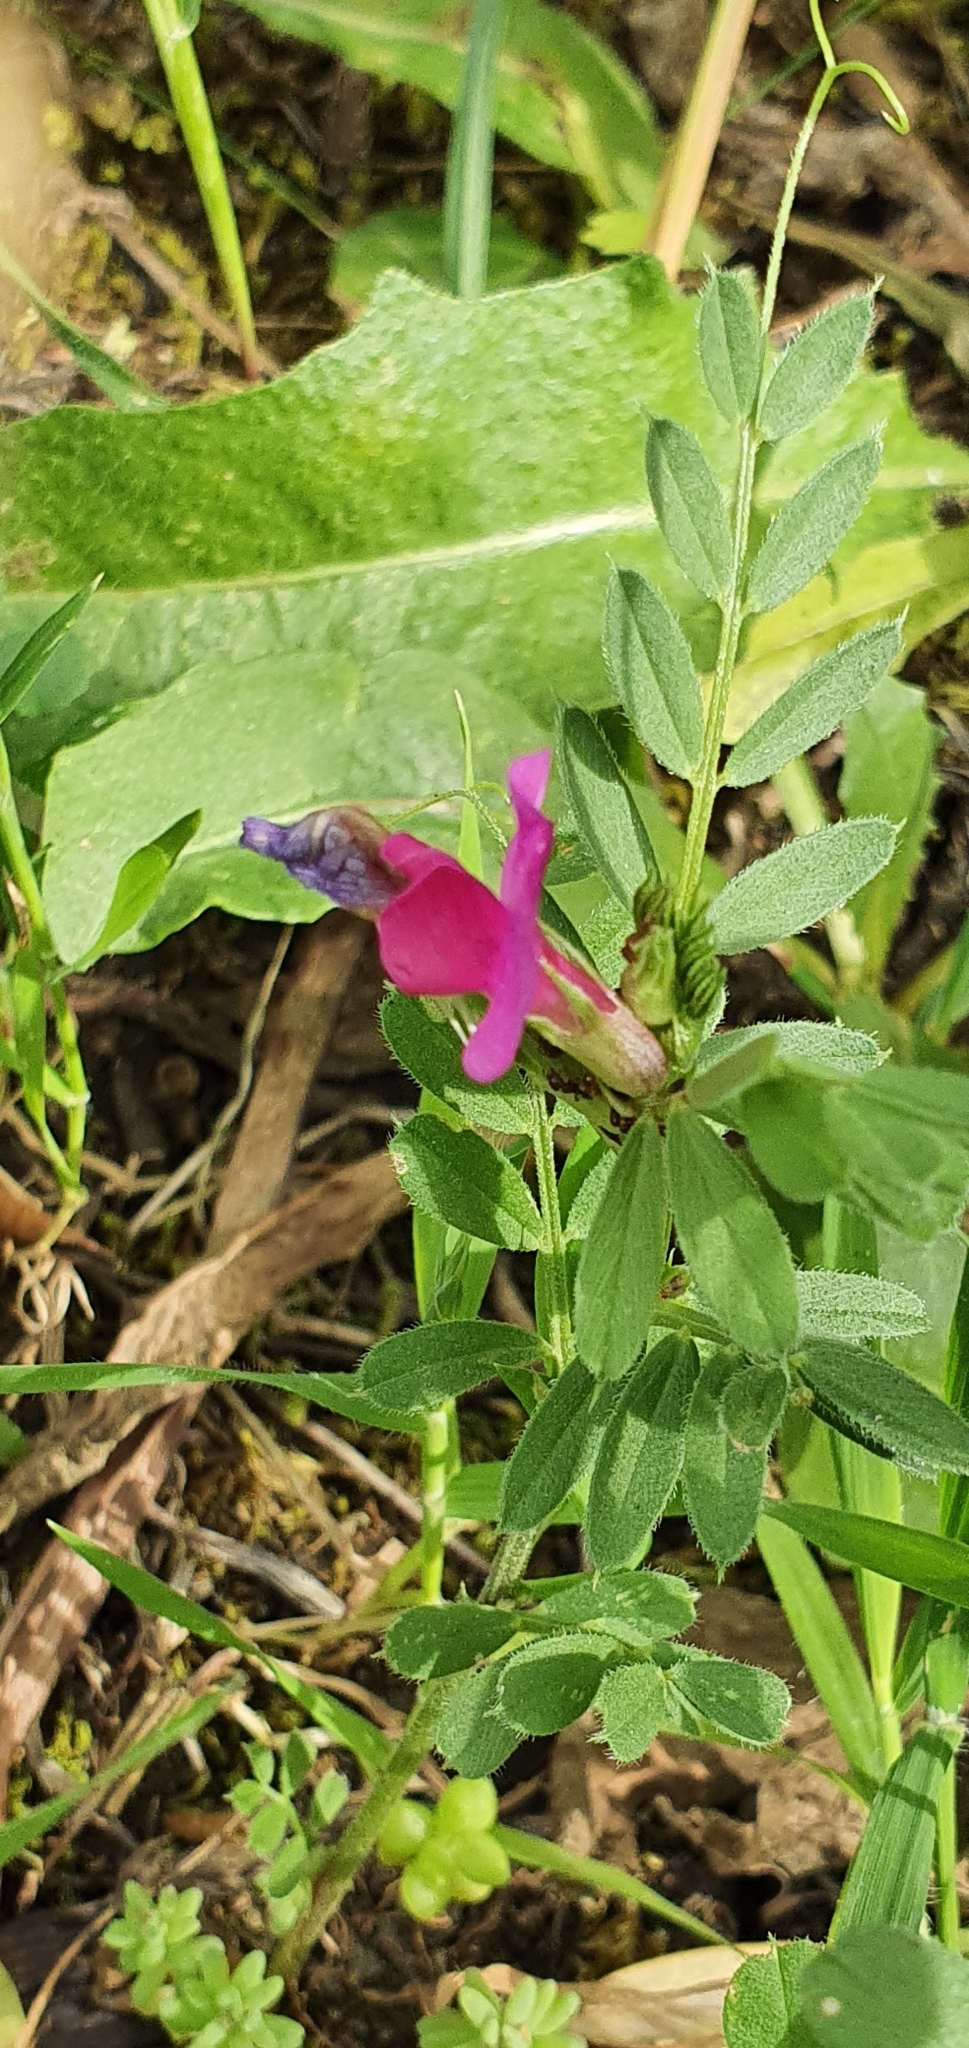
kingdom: Plantae
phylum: Tracheophyta
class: Magnoliopsida
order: Fabales
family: Fabaceae
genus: Vicia
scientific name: Vicia sativa
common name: Garden vetch
